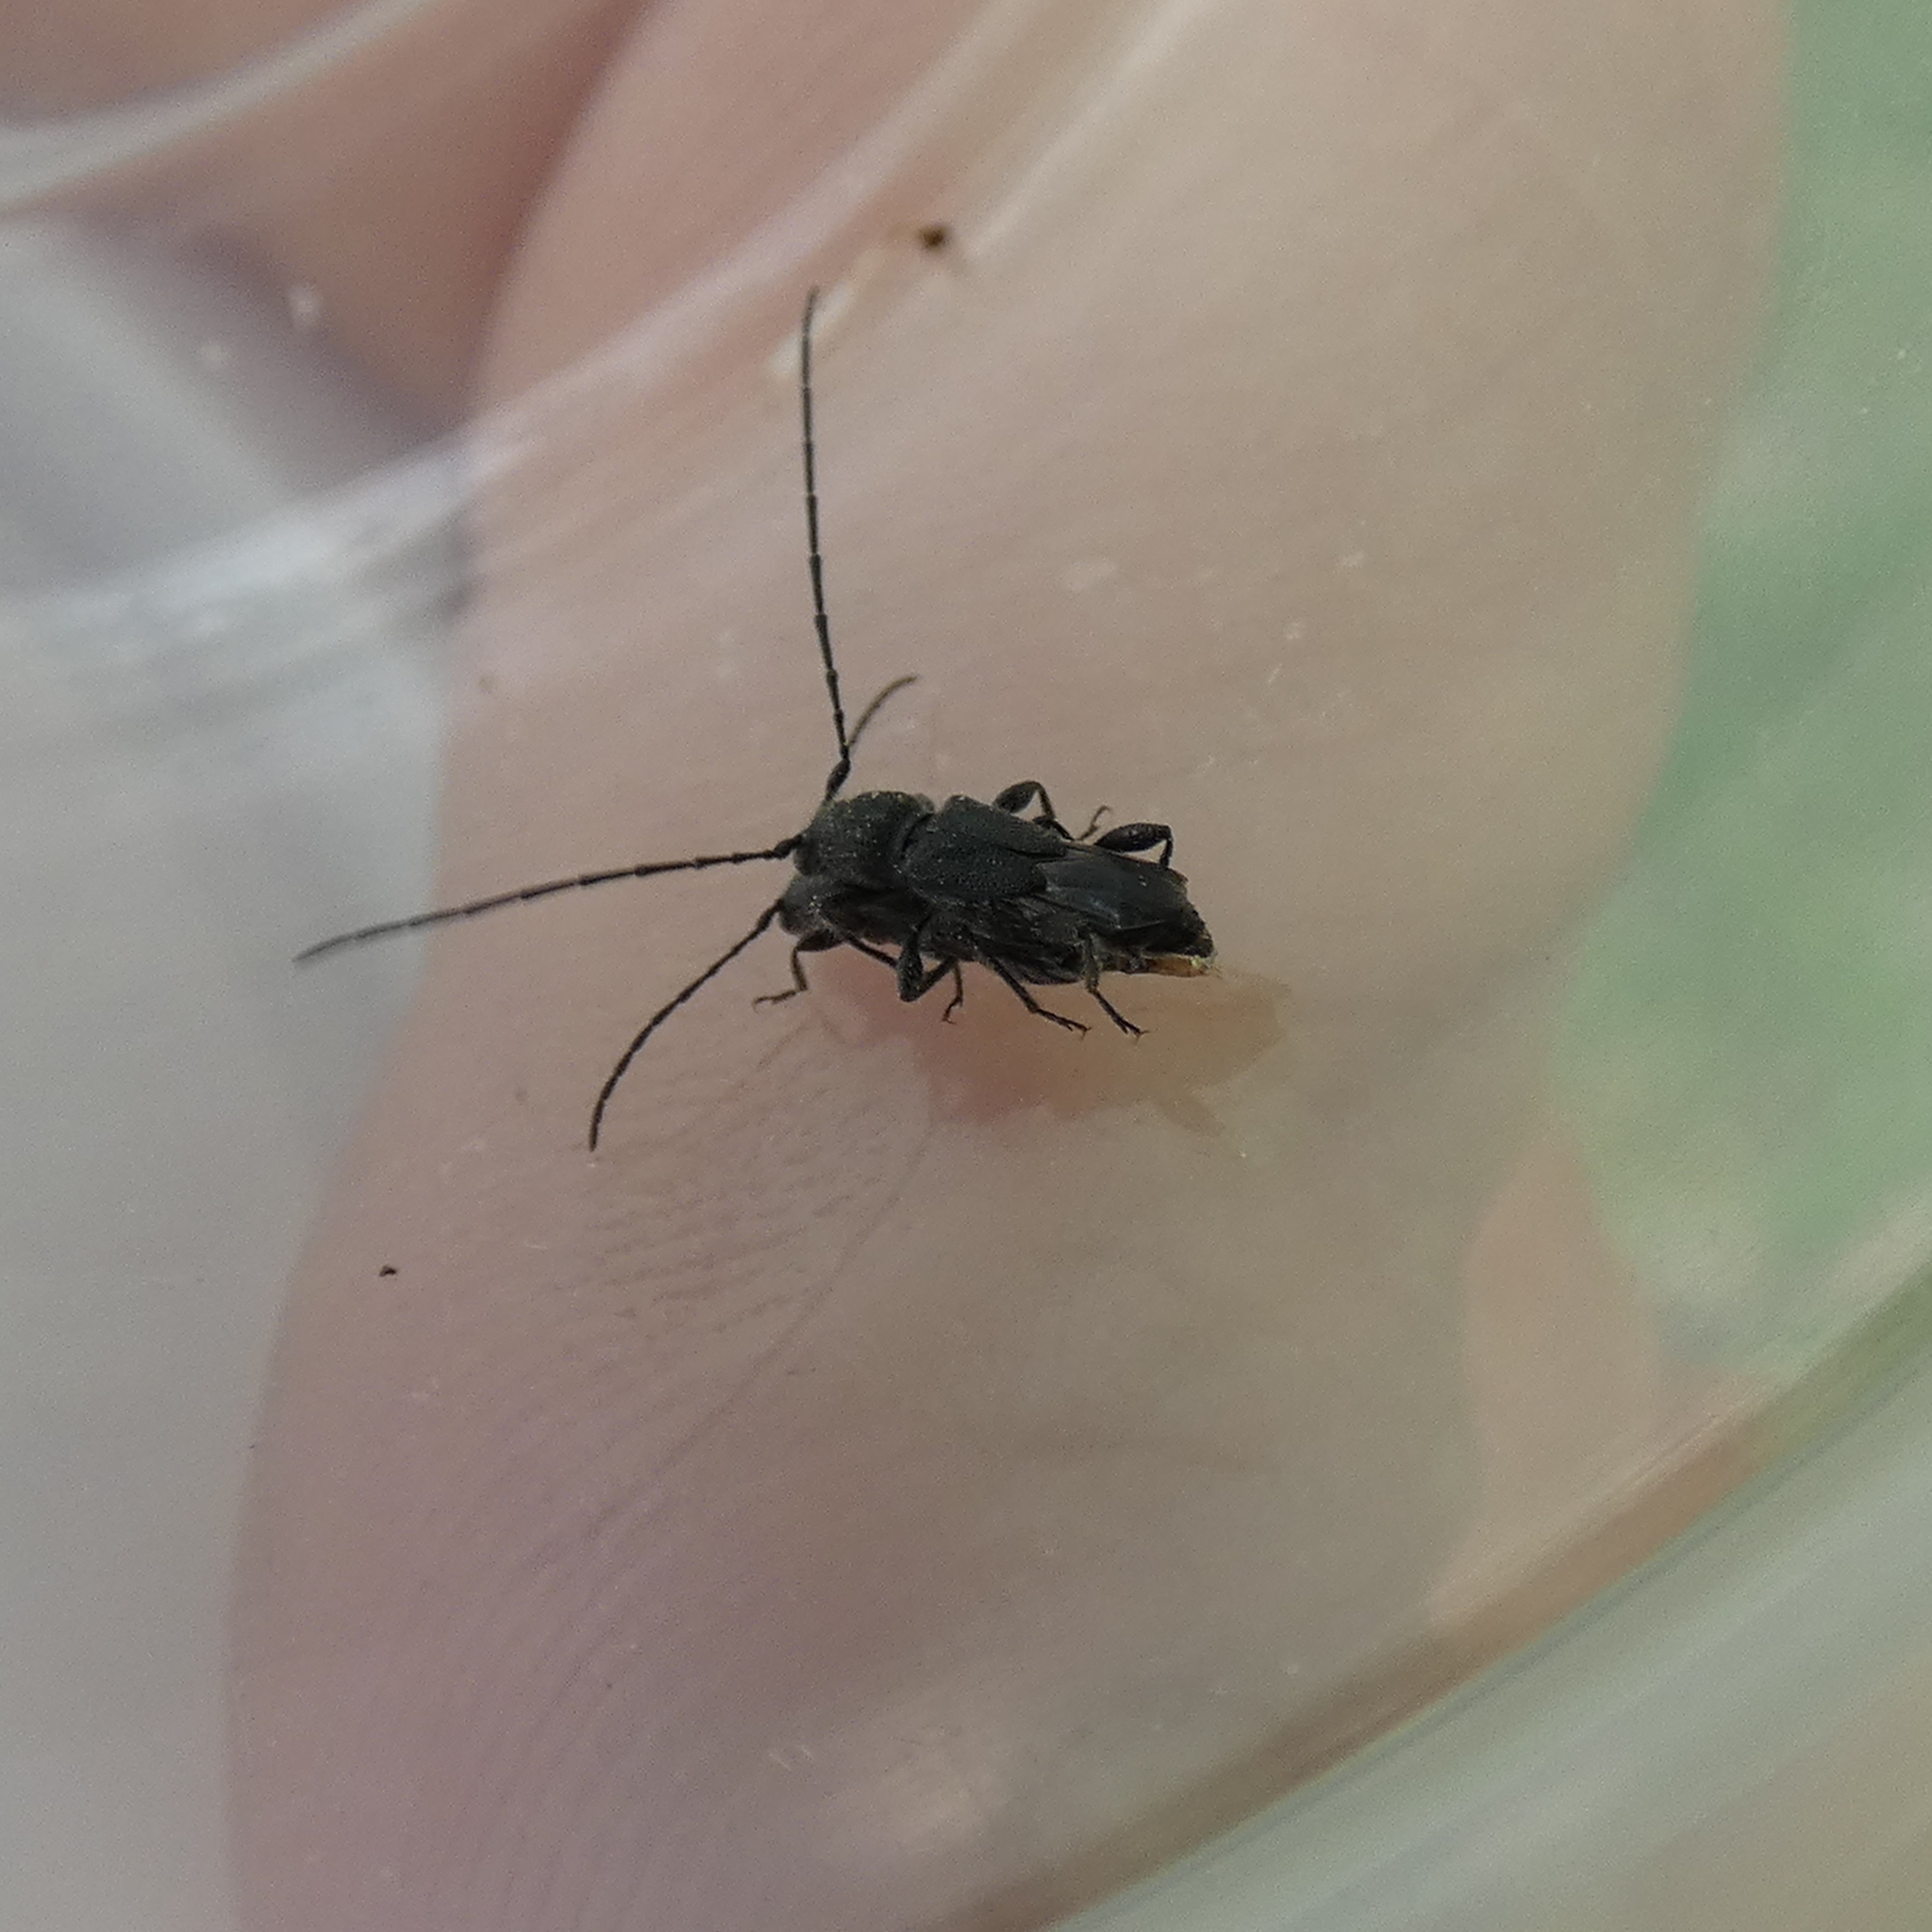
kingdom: Animalia
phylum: Arthropoda
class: Insecta
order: Coleoptera
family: Cerambycidae
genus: Molorchus
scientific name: Molorchus bimaculatus
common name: Bimaculate longhorn beetle
